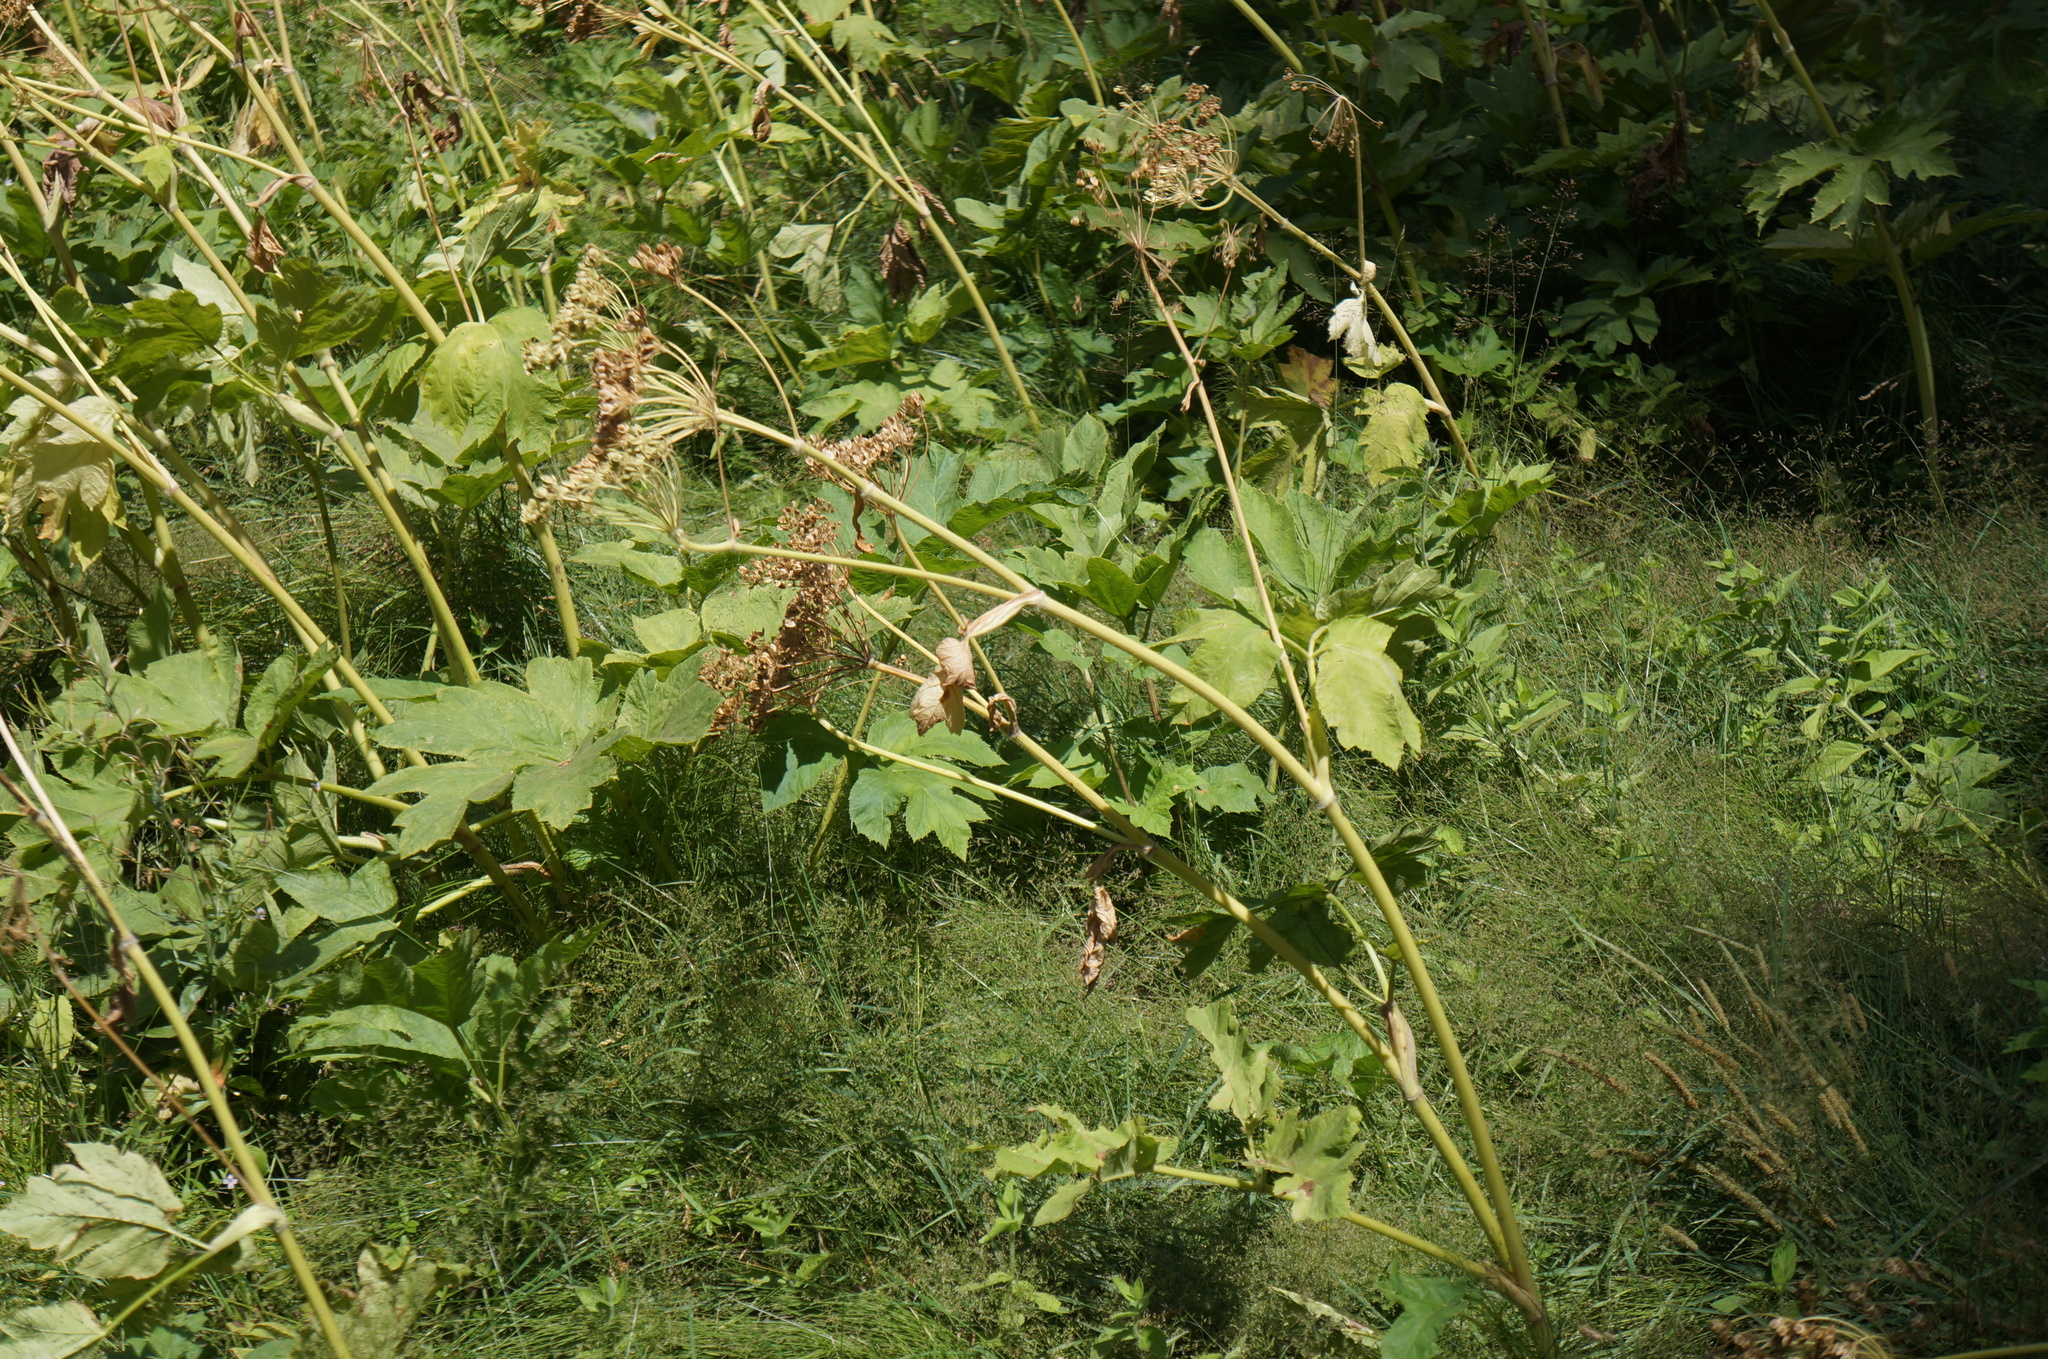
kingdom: Plantae
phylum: Tracheophyta
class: Magnoliopsida
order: Apiales
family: Apiaceae
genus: Heracleum
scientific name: Heracleum maximum
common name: American cow parsnip
